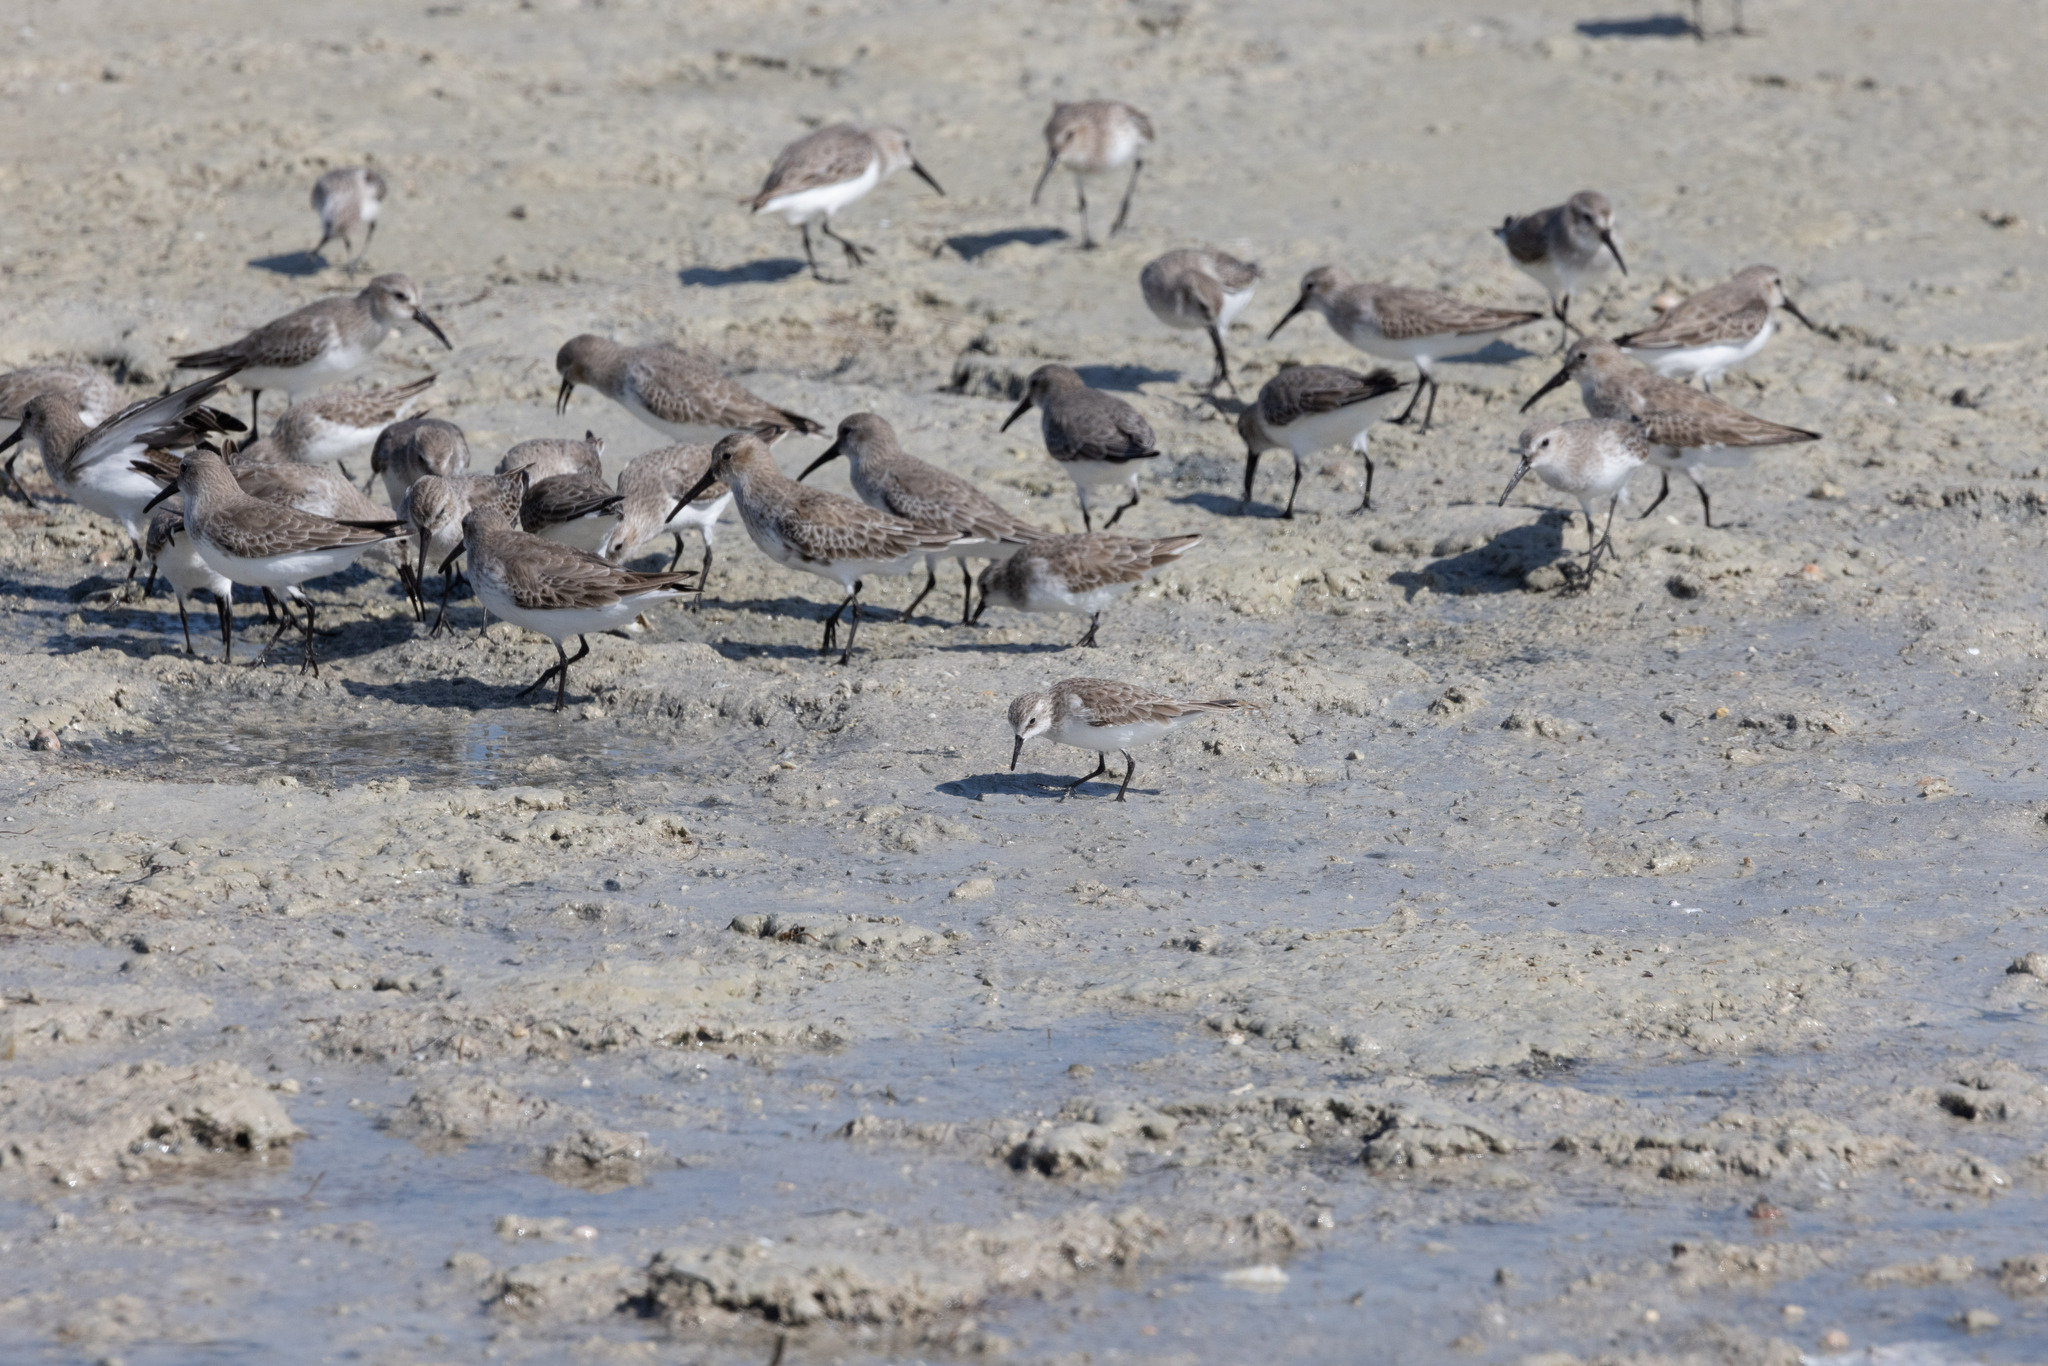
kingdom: Animalia
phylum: Chordata
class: Aves
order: Charadriiformes
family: Scolopacidae
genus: Calidris
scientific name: Calidris alpina
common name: Dunlin
